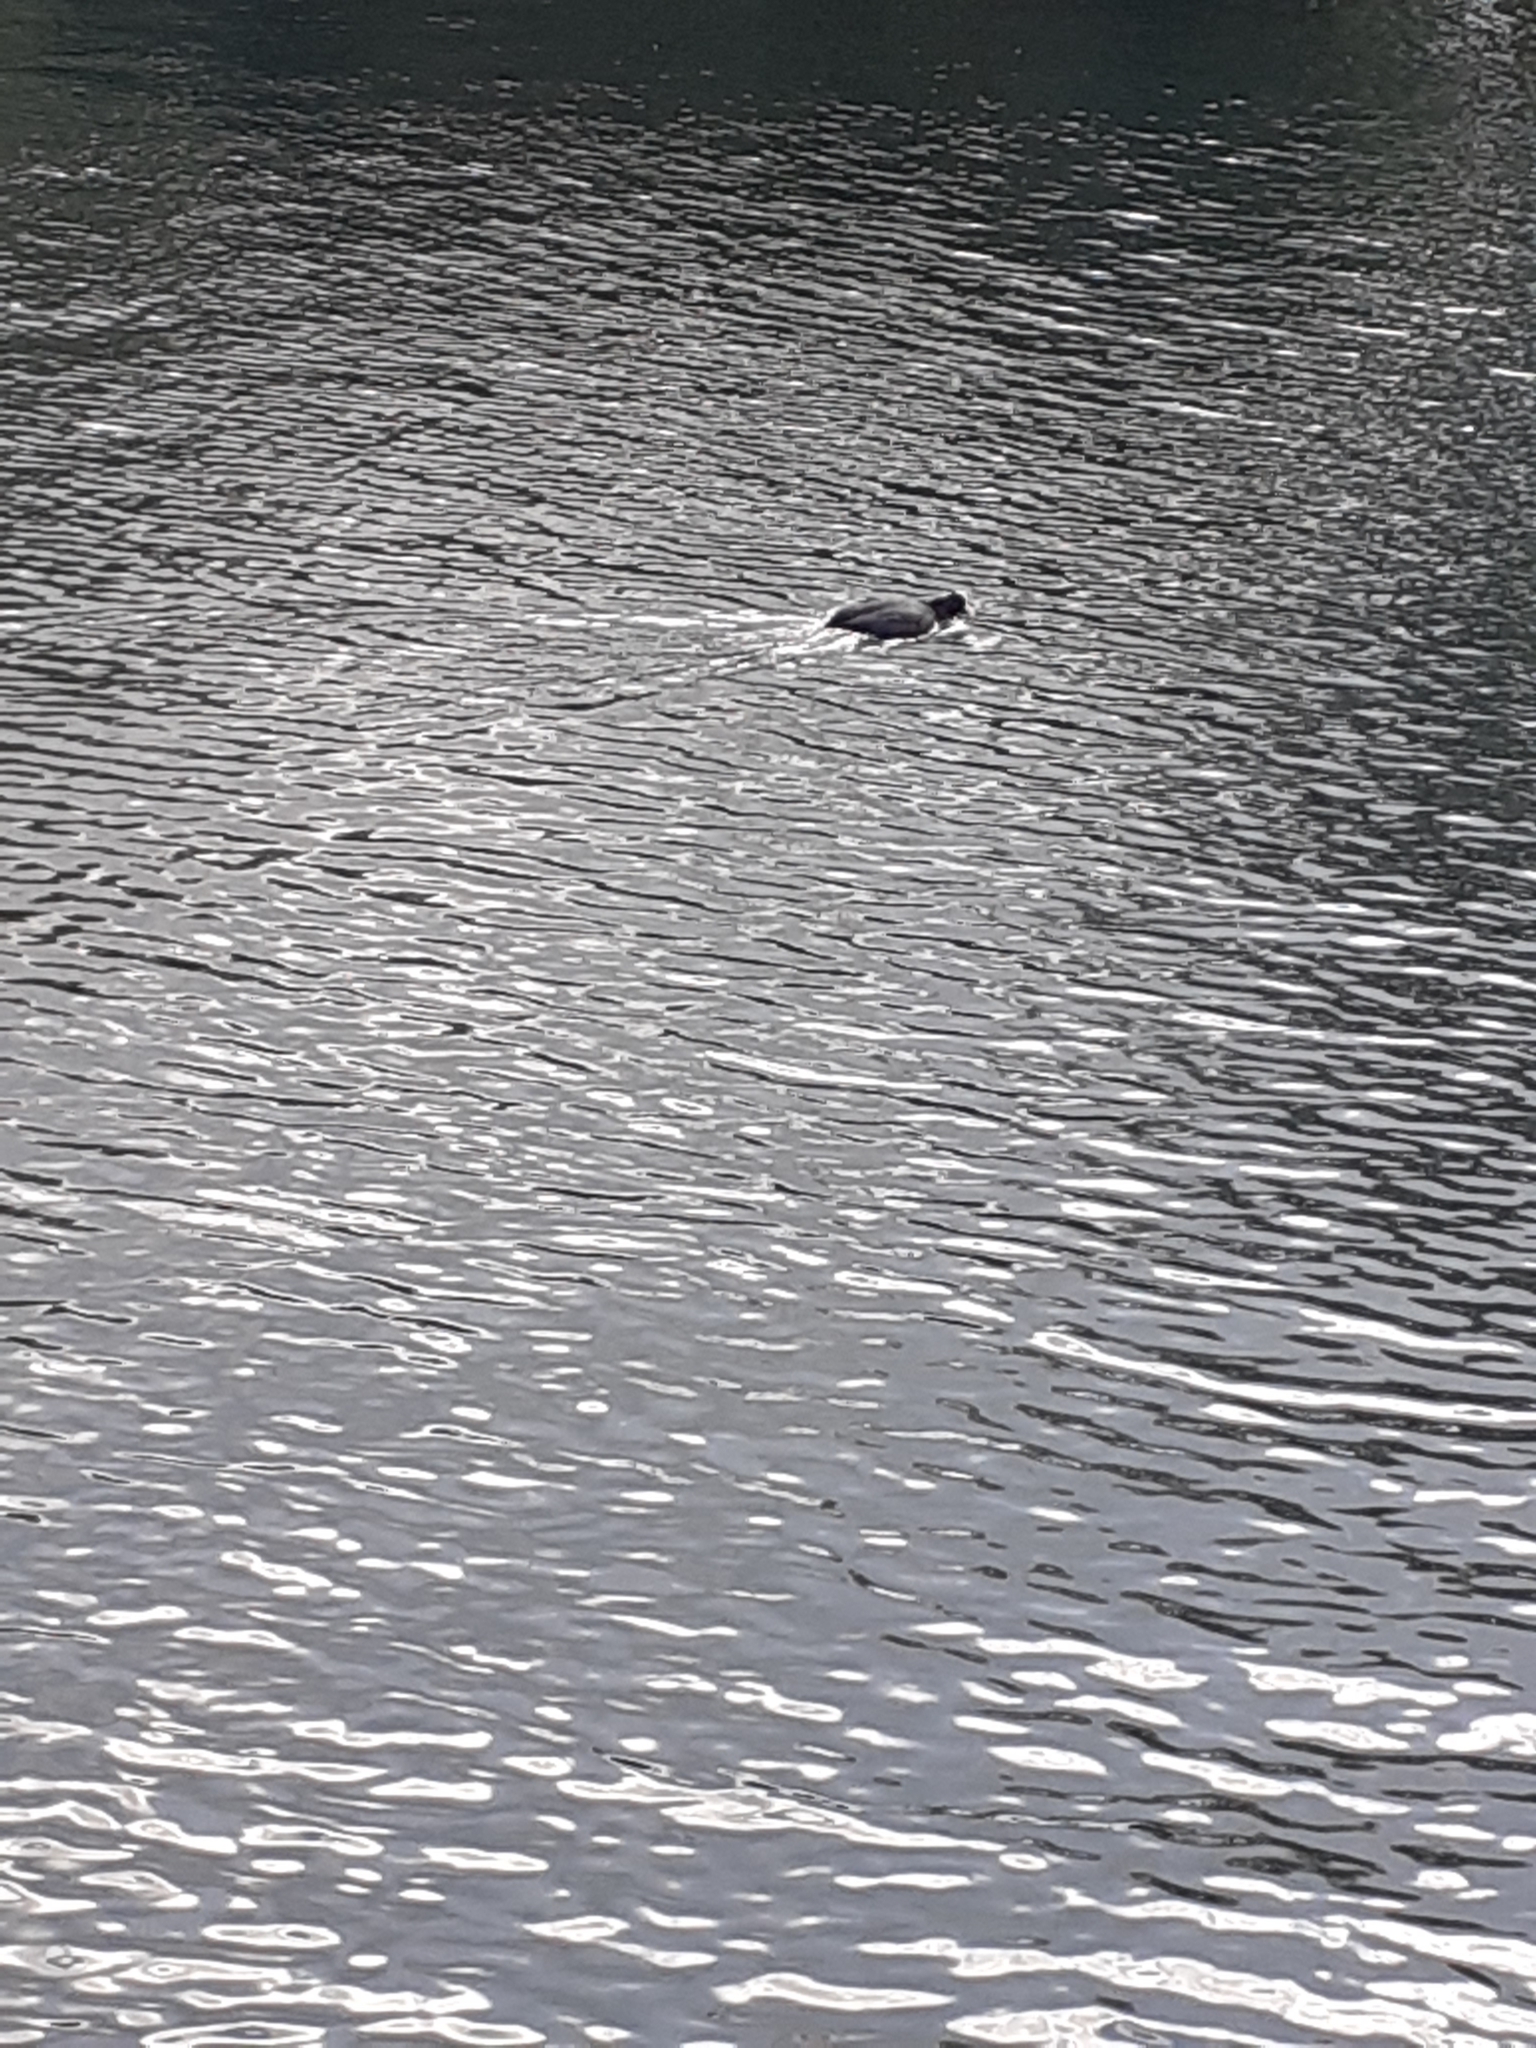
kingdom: Animalia
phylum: Chordata
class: Aves
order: Gruiformes
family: Rallidae
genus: Fulica
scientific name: Fulica atra
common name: Eurasian coot
